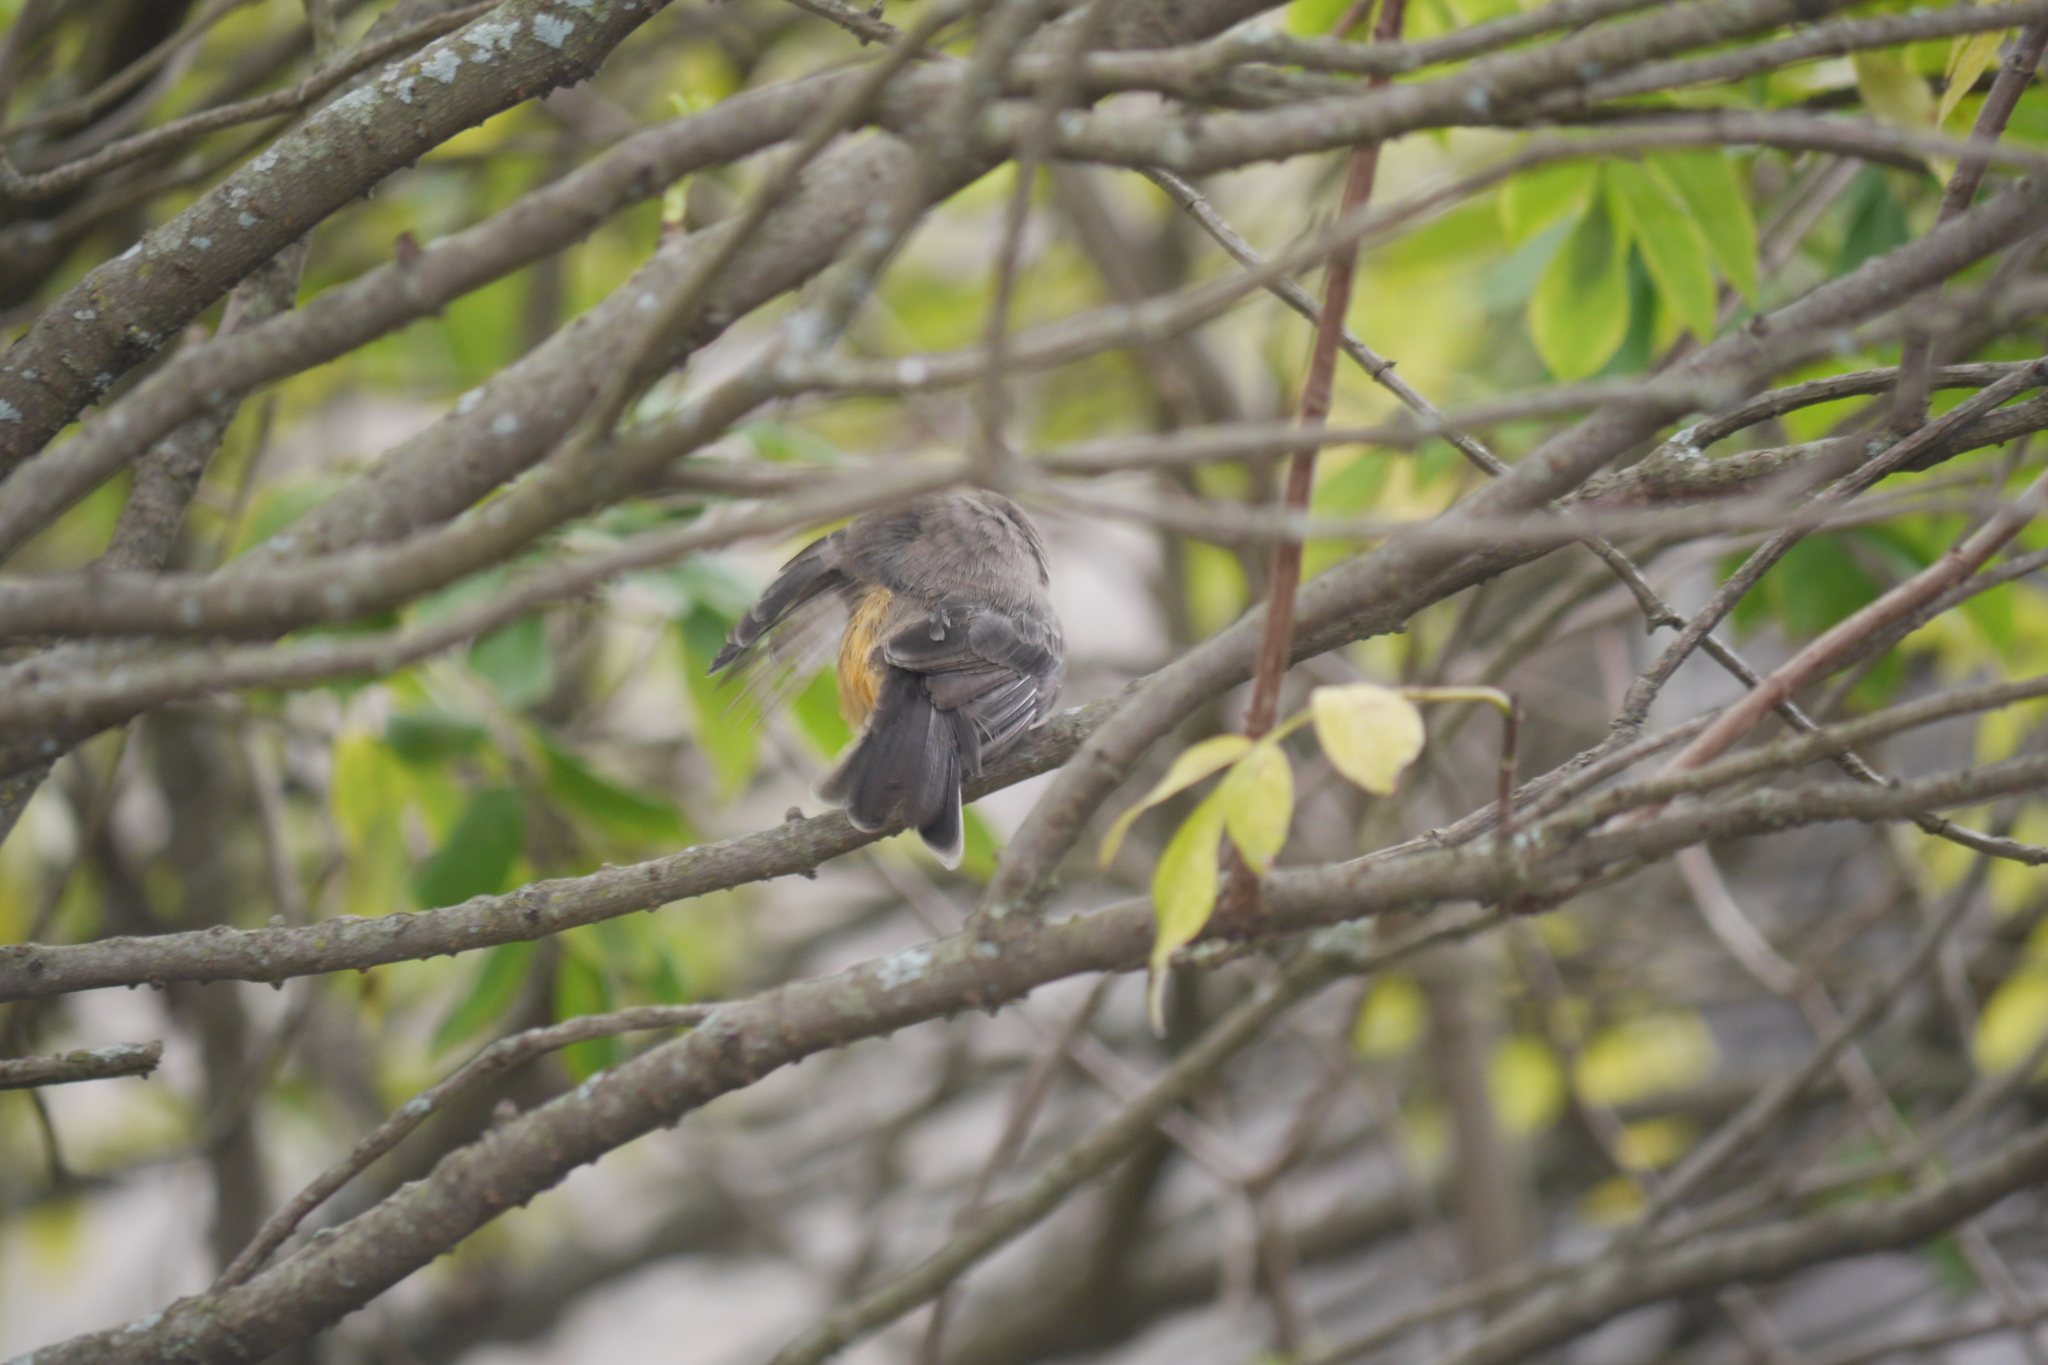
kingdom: Animalia
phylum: Chordata
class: Aves
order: Passeriformes
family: Tyrannidae
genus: Pyrocephalus
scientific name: Pyrocephalus rubinus
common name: Vermilion flycatcher
